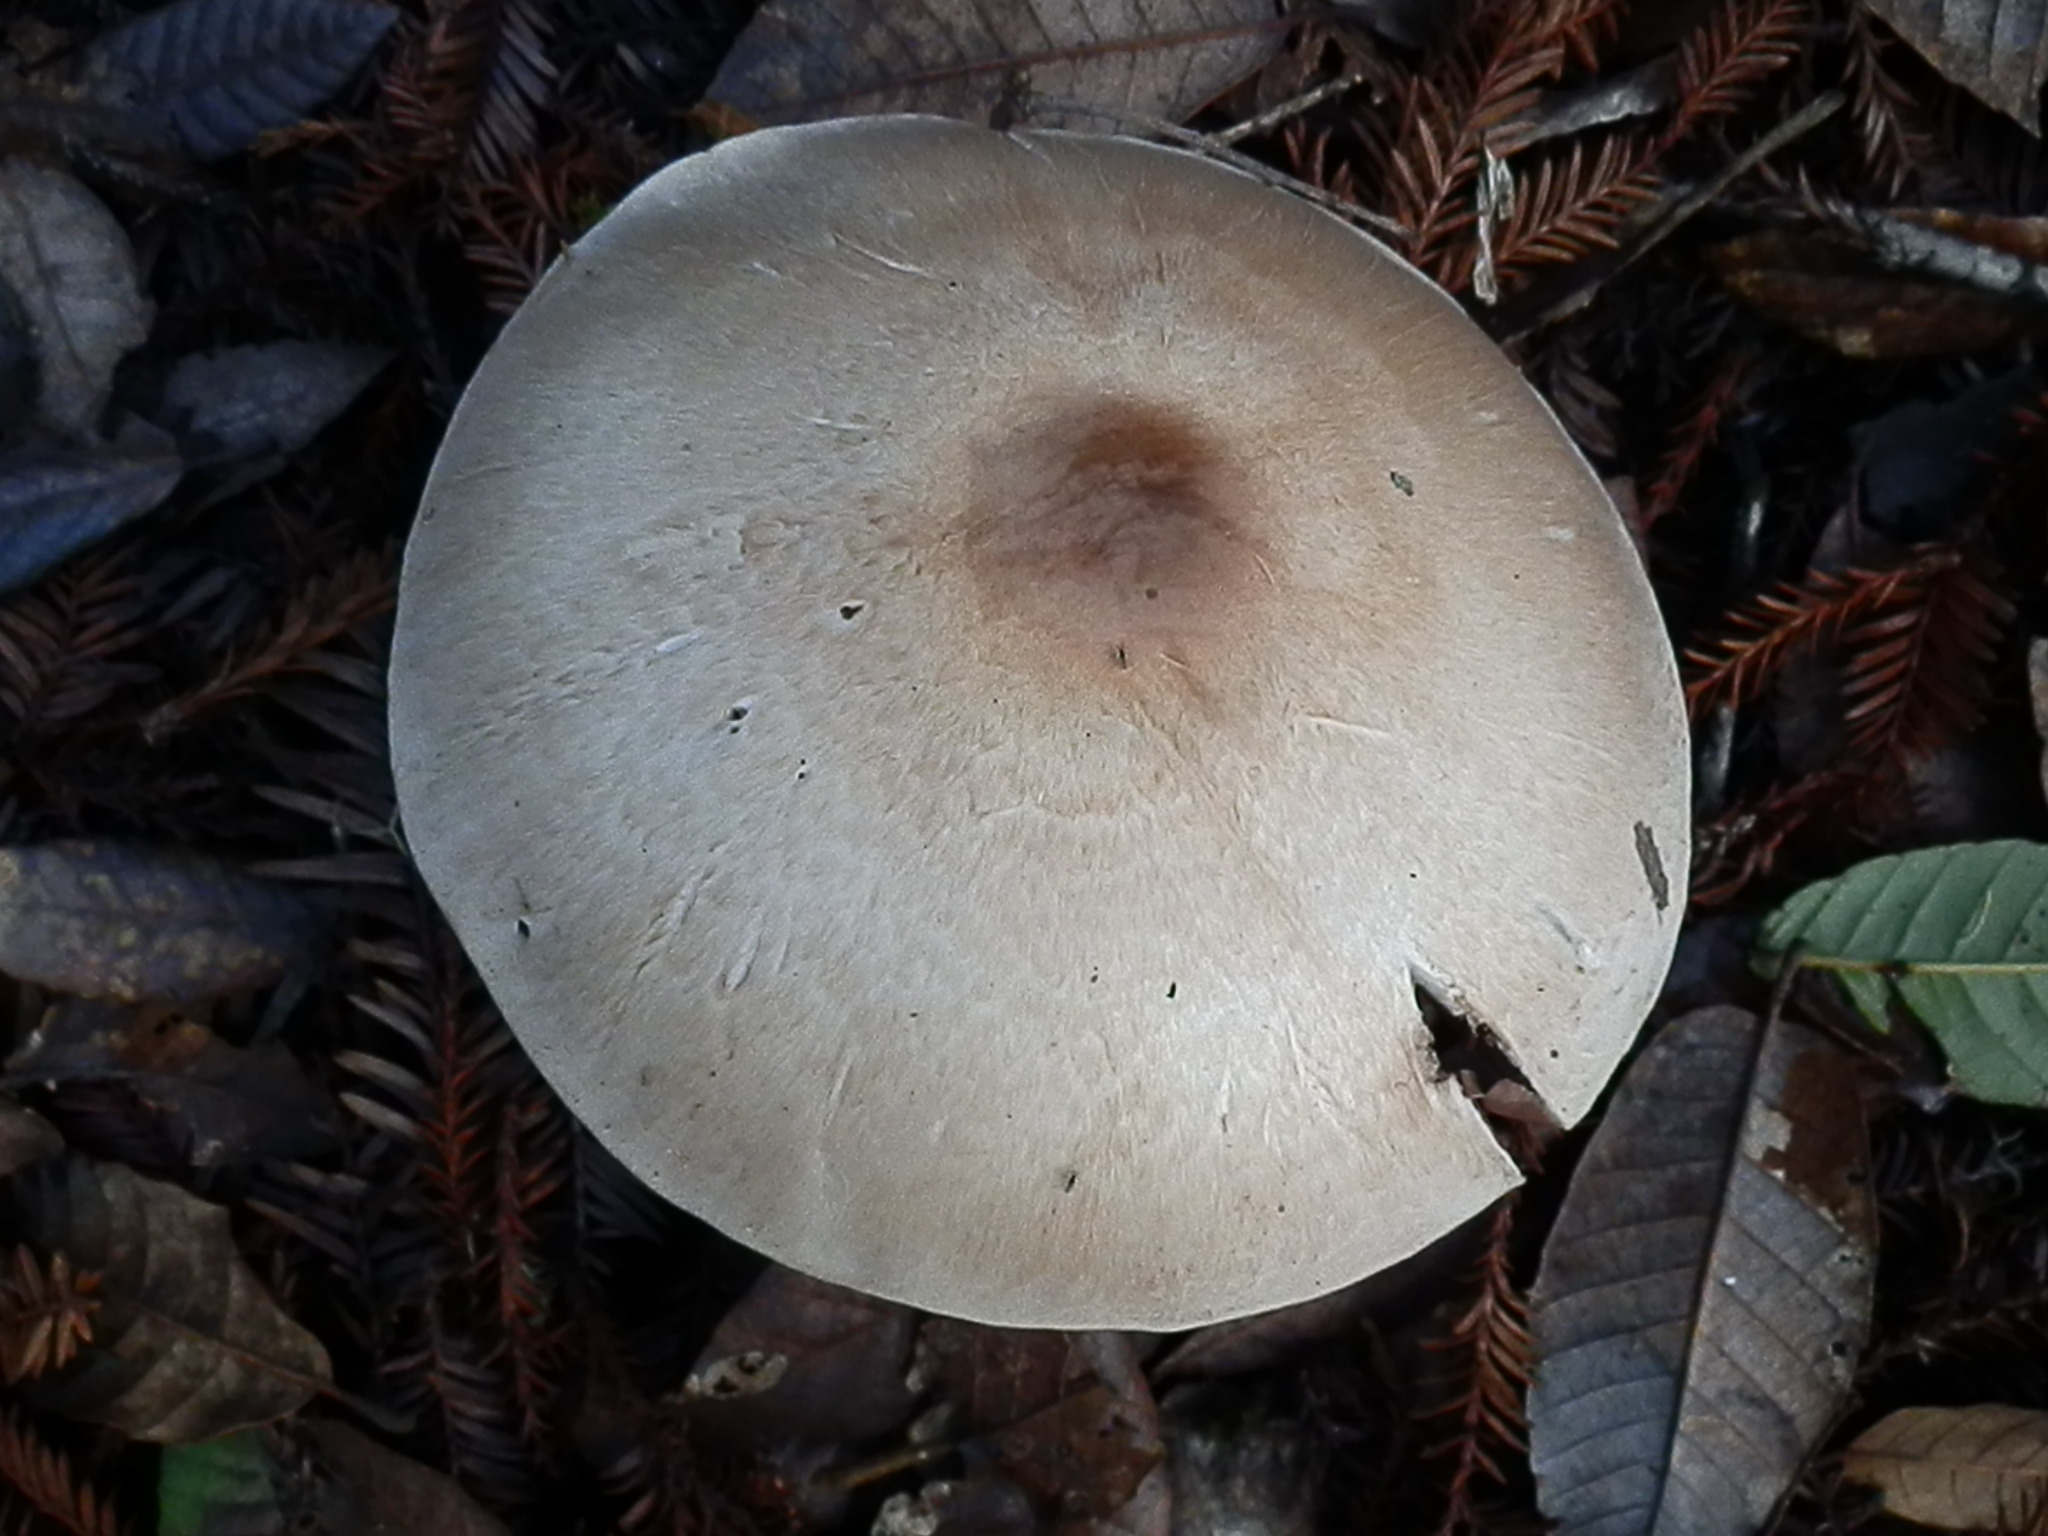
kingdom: Fungi
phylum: Basidiomycota
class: Agaricomycetes
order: Agaricales
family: Agaricaceae
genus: Agaricus
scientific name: Agaricus hondensis
